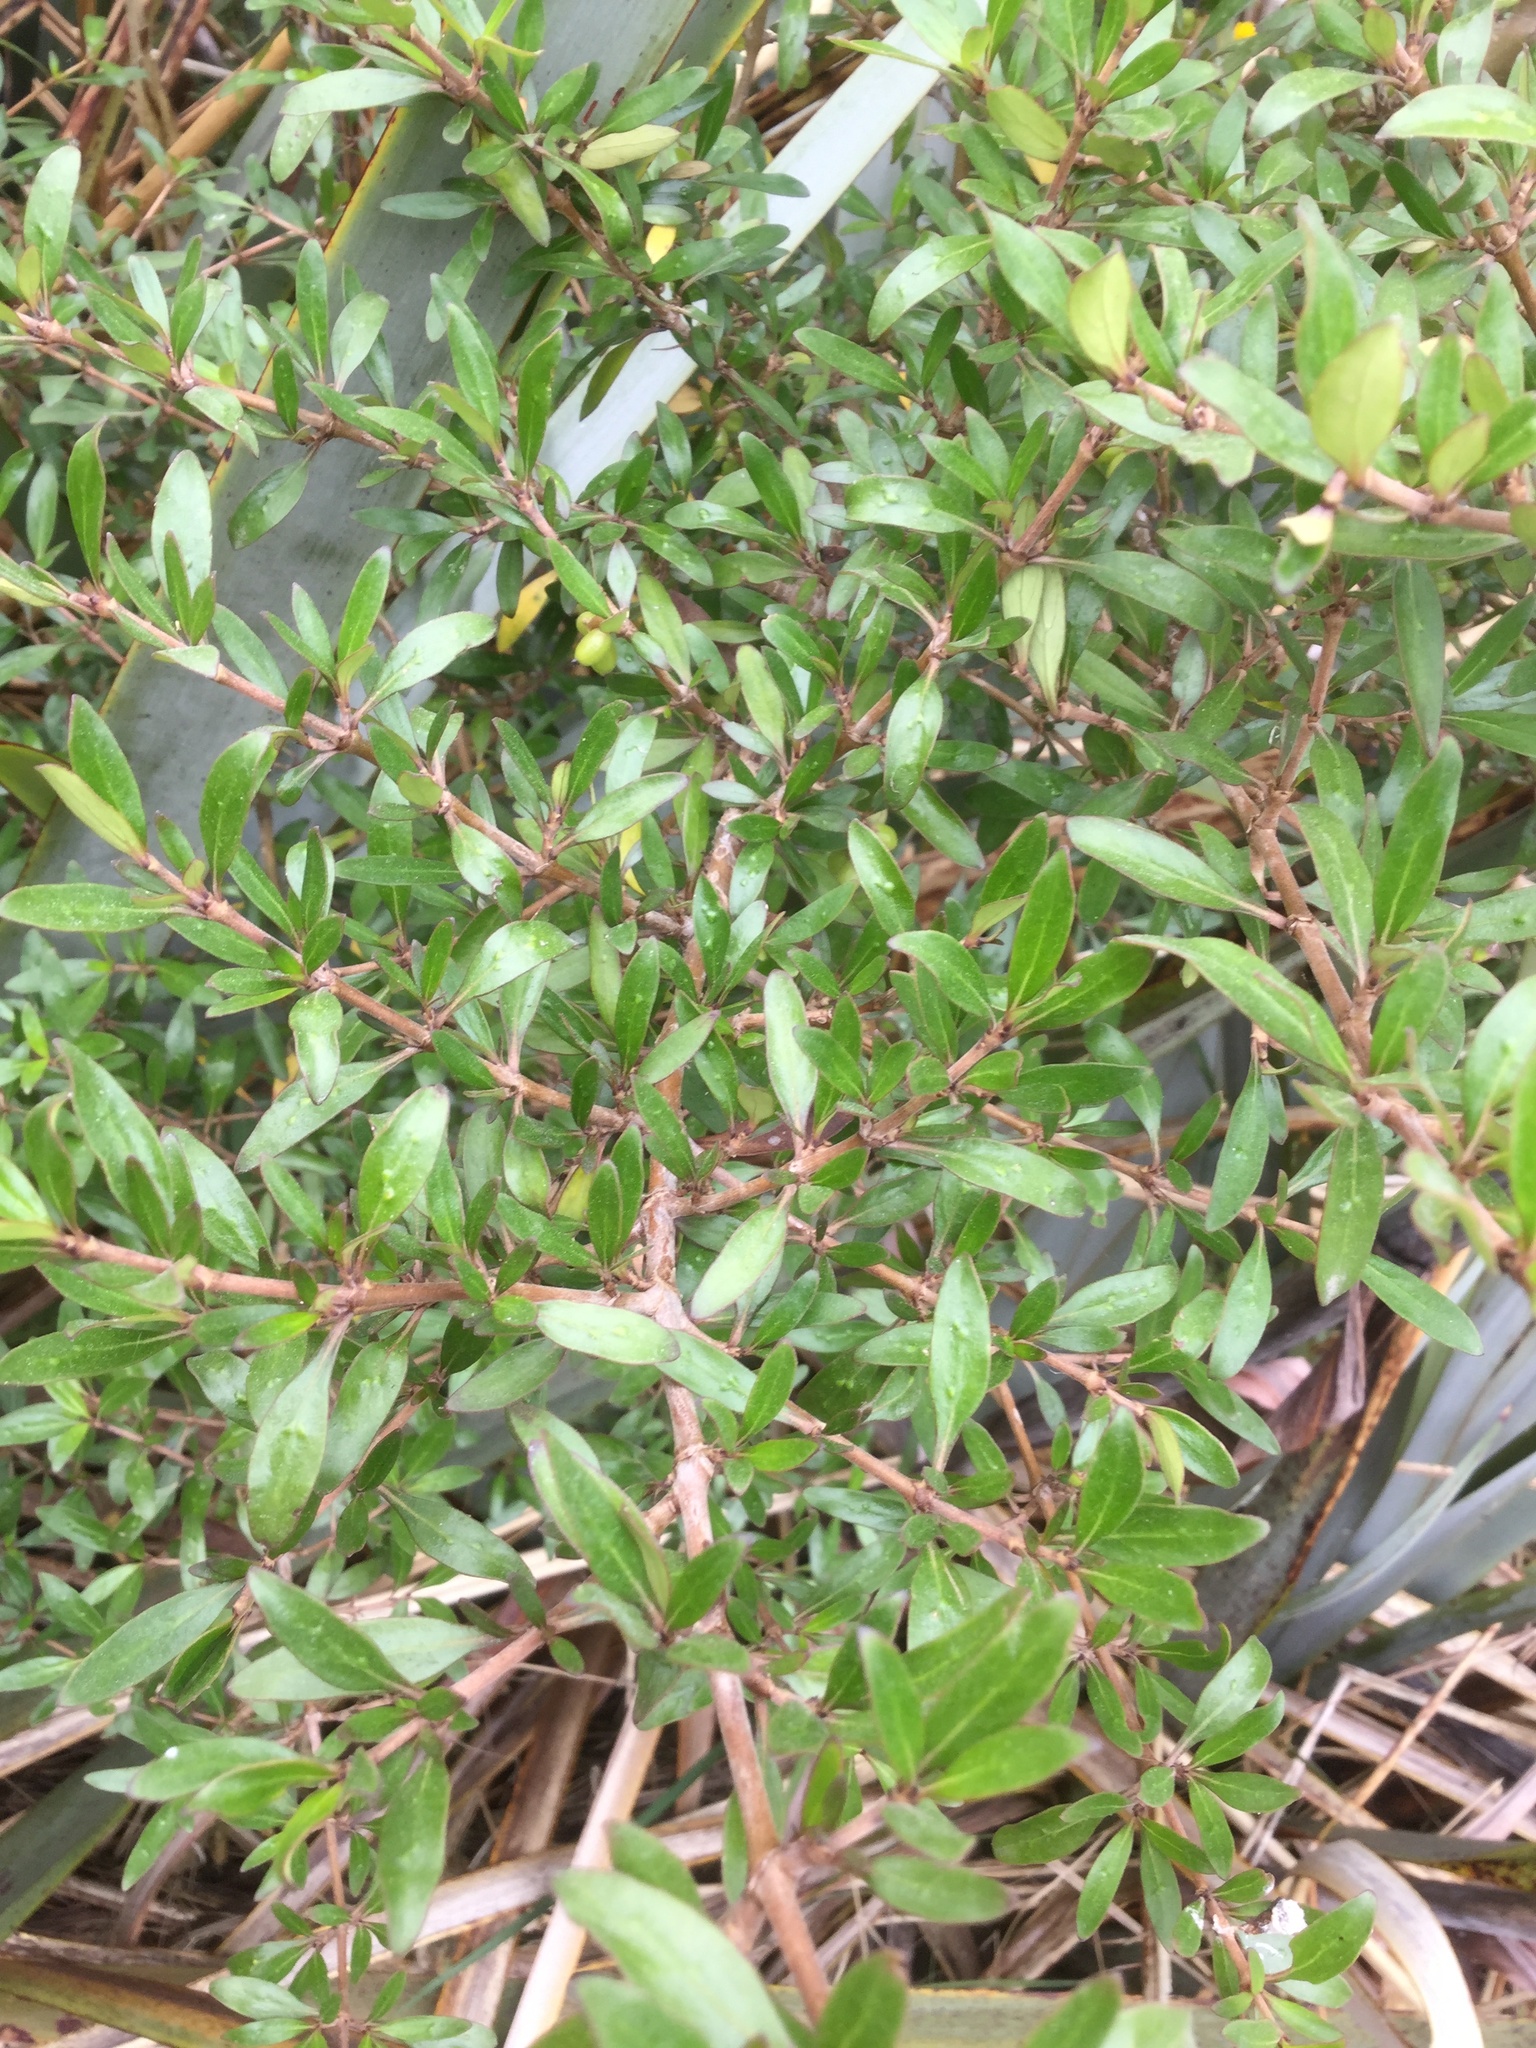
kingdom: Plantae
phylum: Tracheophyta
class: Magnoliopsida
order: Gentianales
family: Rubiaceae
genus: Coprosma
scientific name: Coprosma cunninghamii
